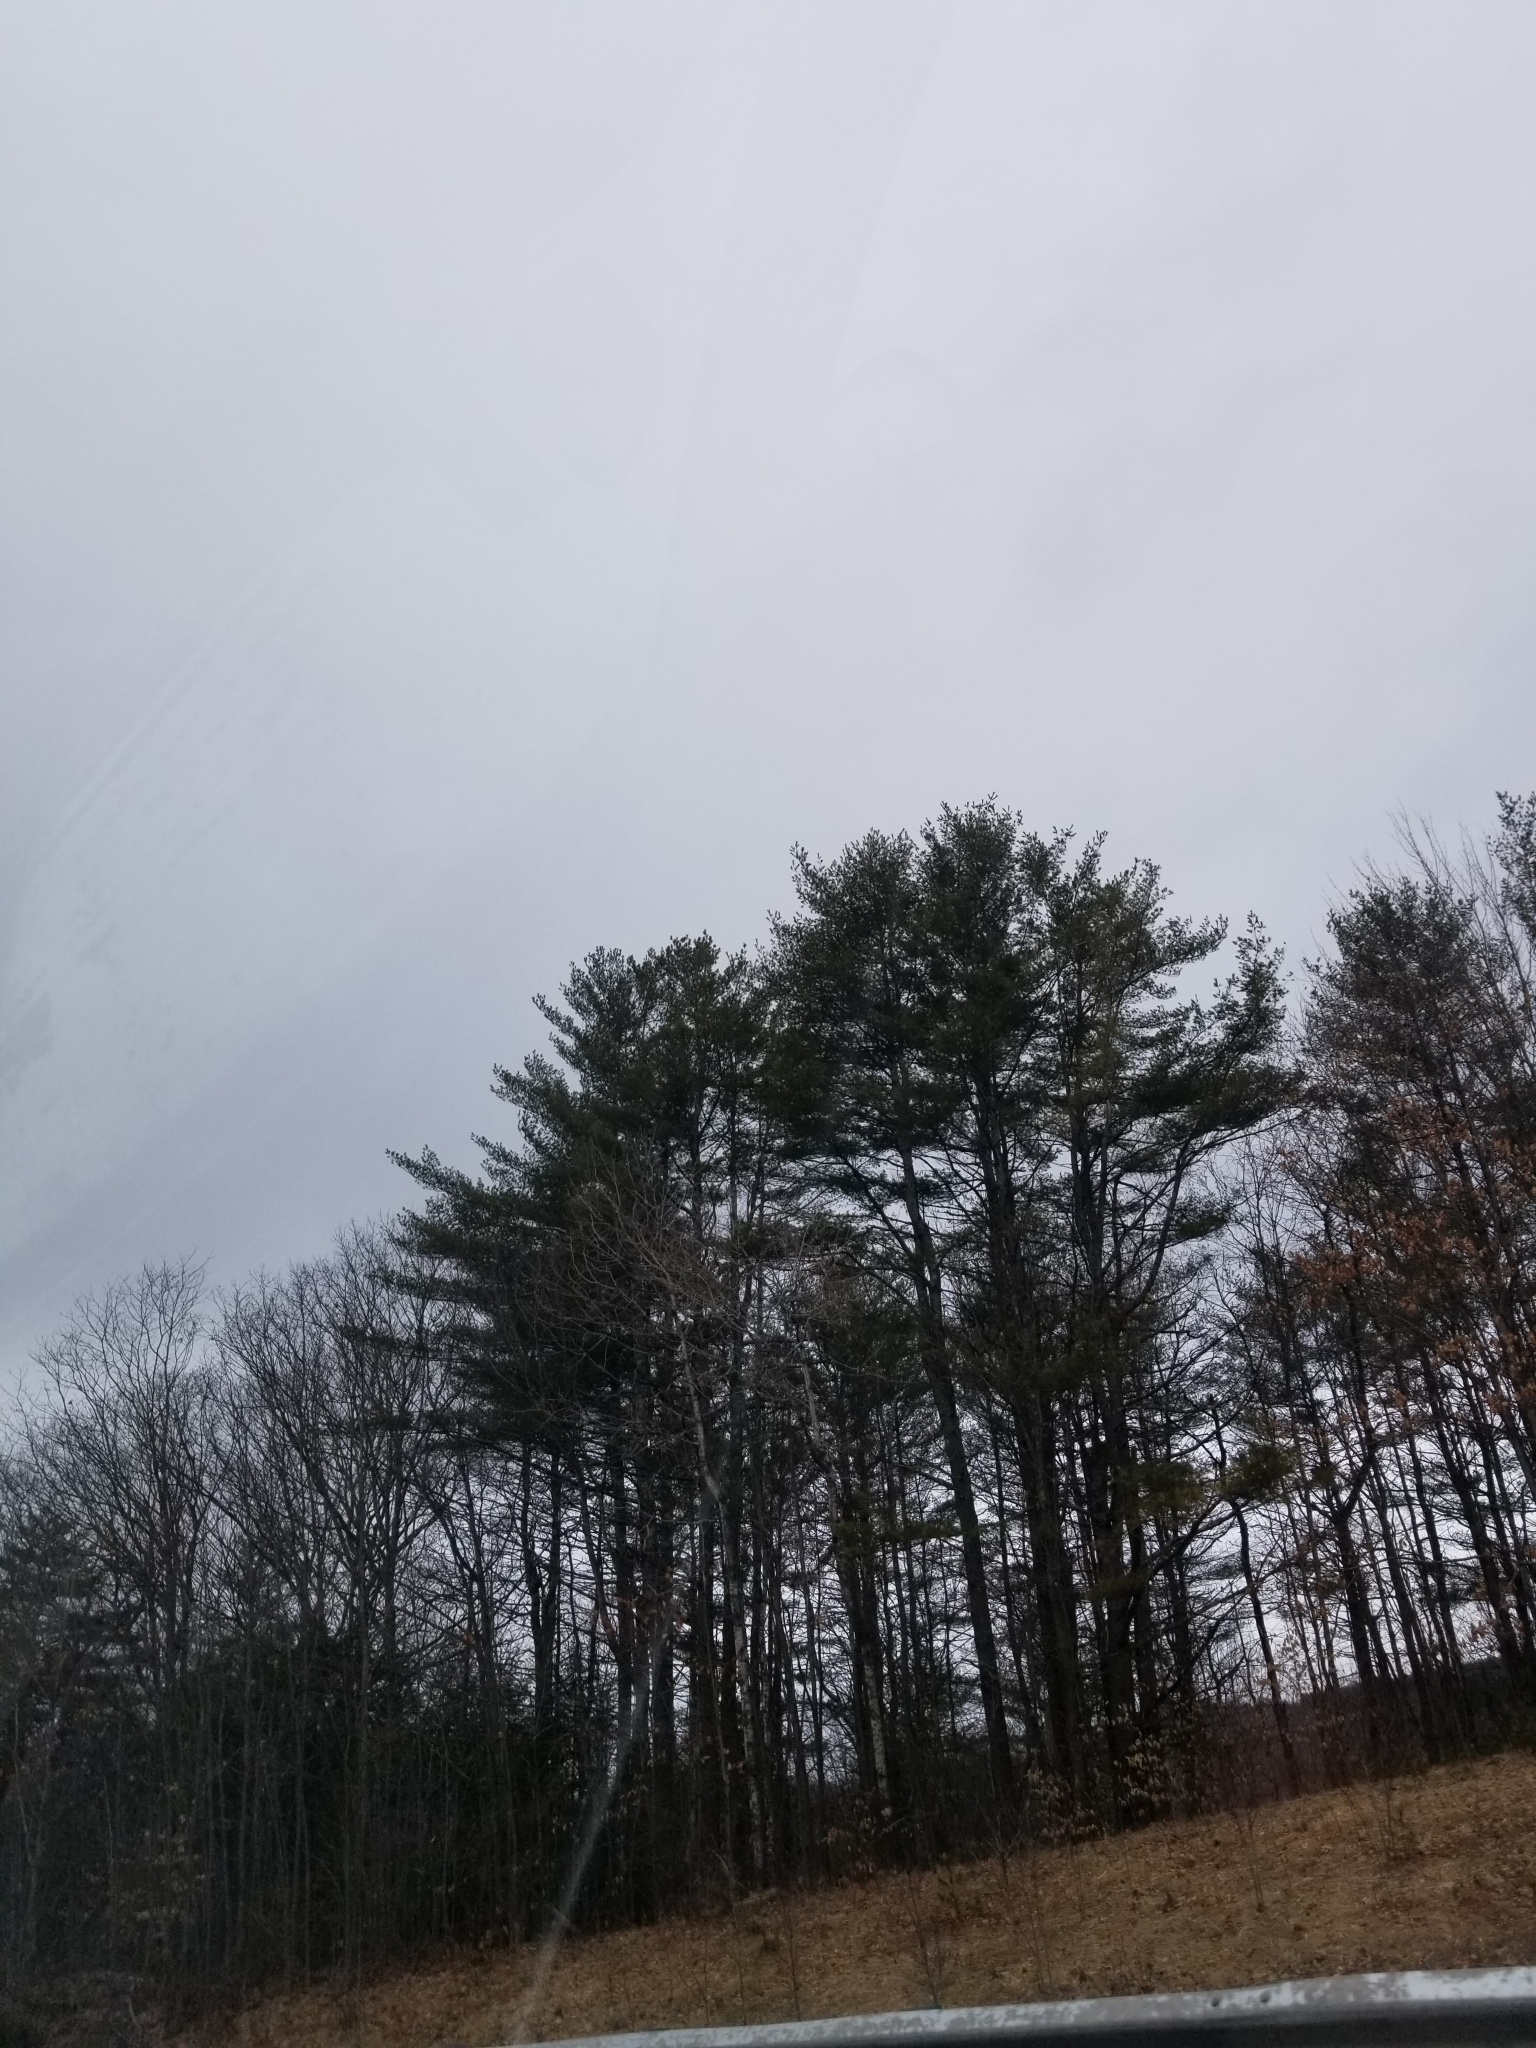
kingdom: Plantae
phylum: Tracheophyta
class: Pinopsida
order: Pinales
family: Pinaceae
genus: Pinus
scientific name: Pinus strobus
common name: Weymouth pine
